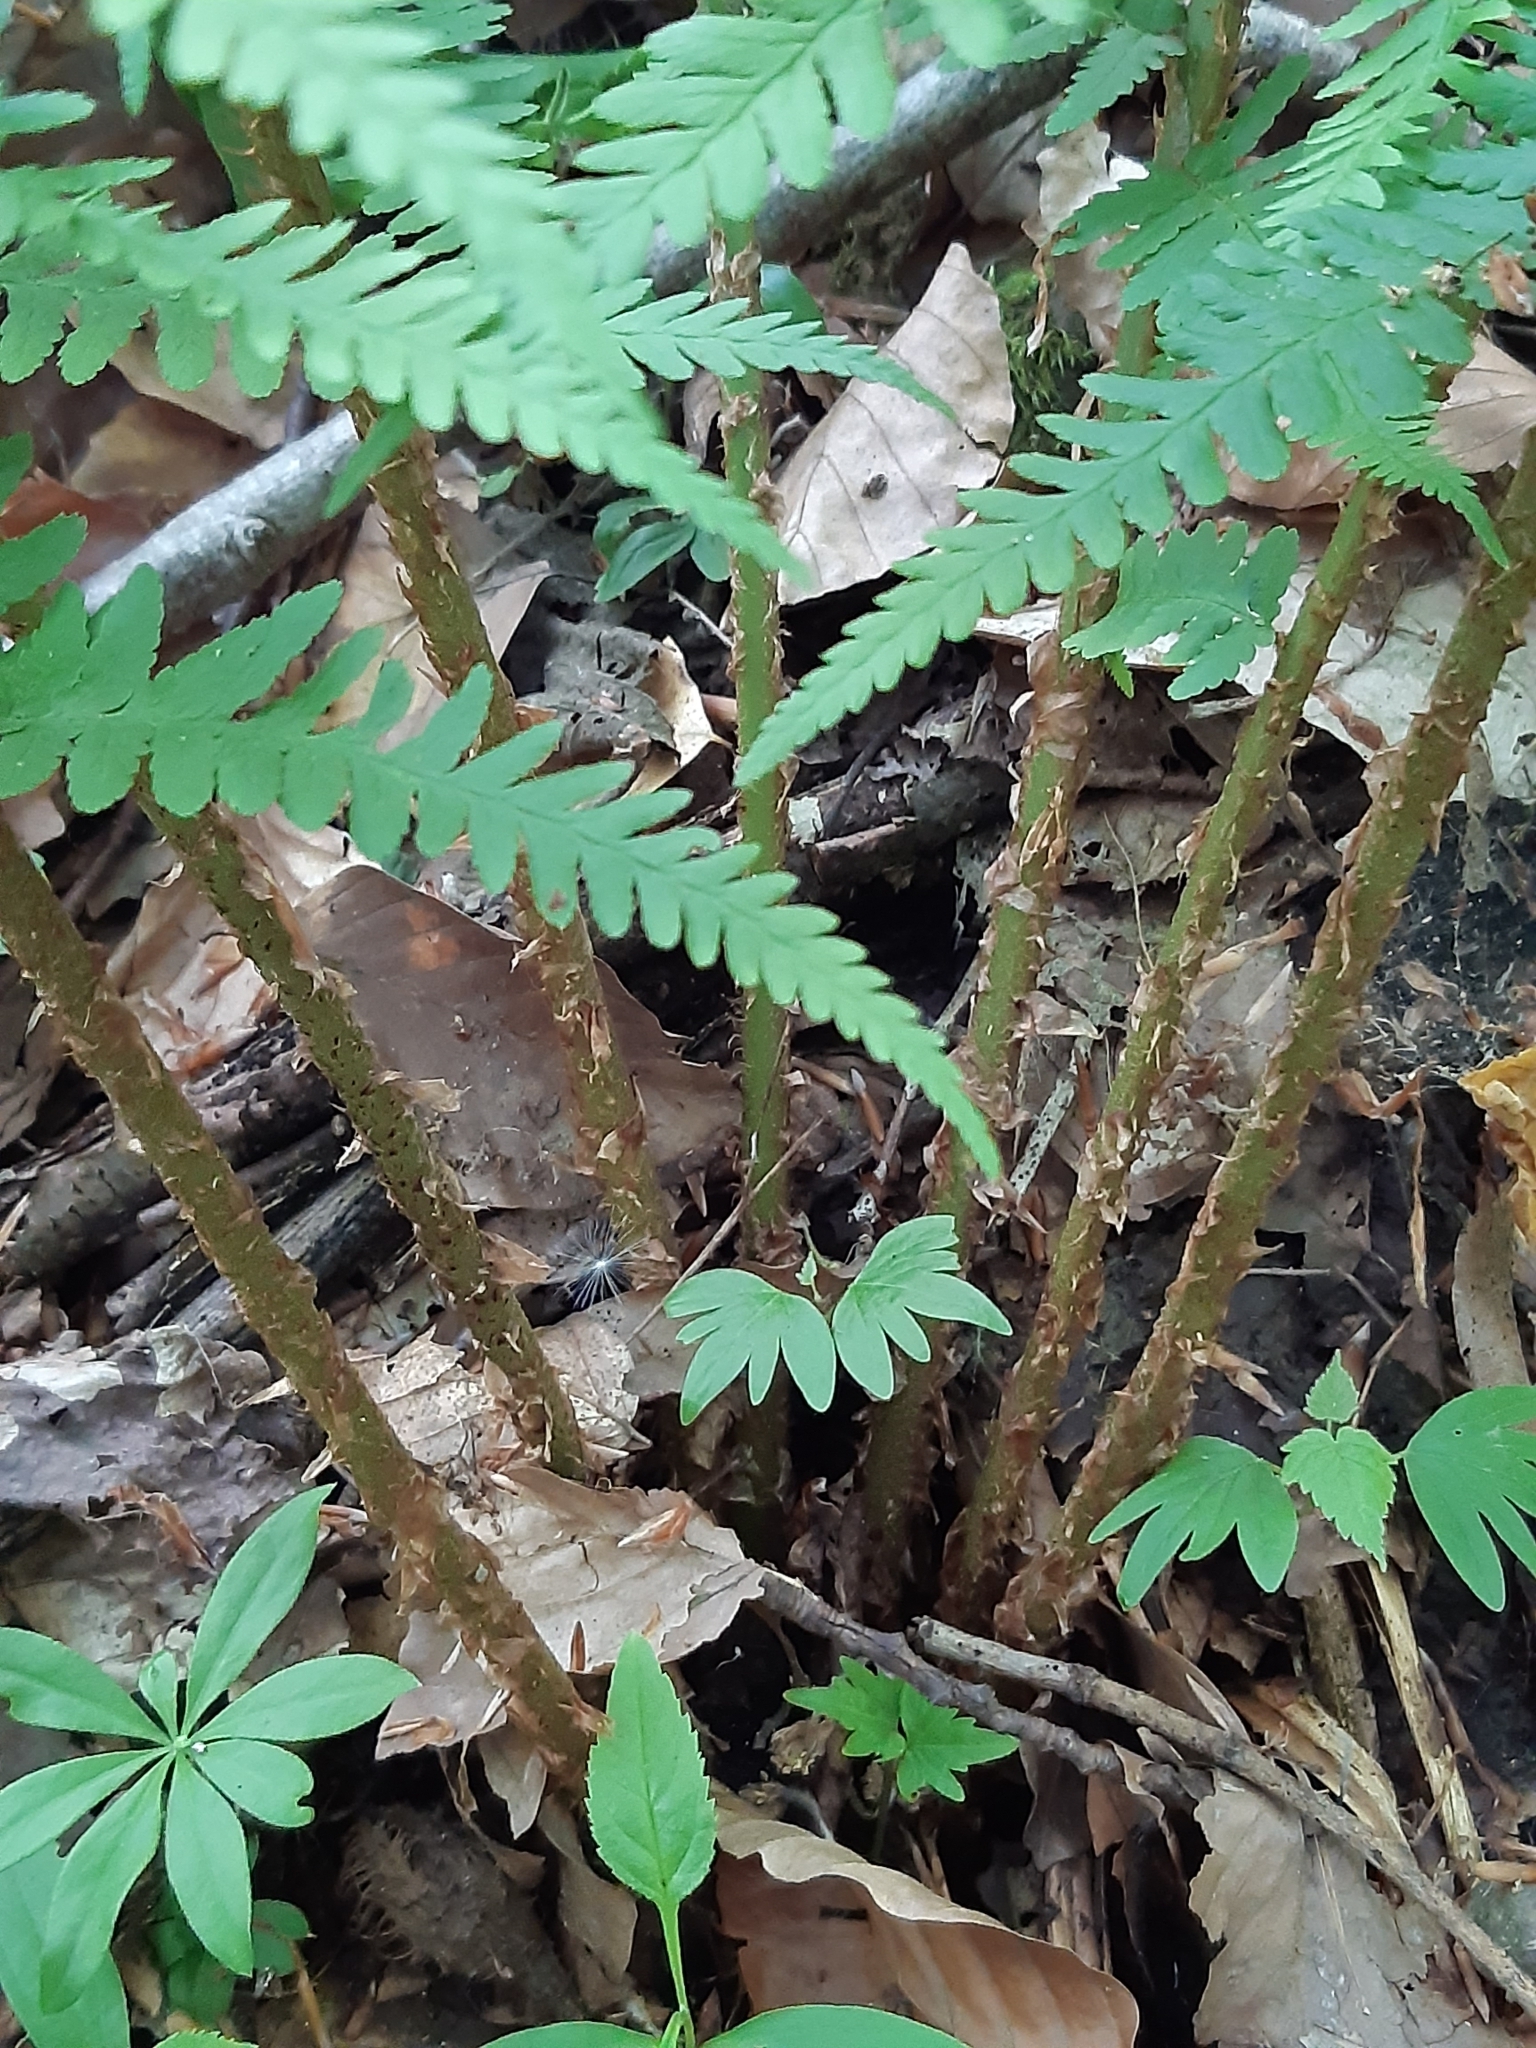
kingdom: Plantae
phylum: Tracheophyta
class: Polypodiopsida
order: Polypodiales
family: Dryopteridaceae
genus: Dryopteris
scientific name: Dryopteris filix-mas
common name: Male fern
